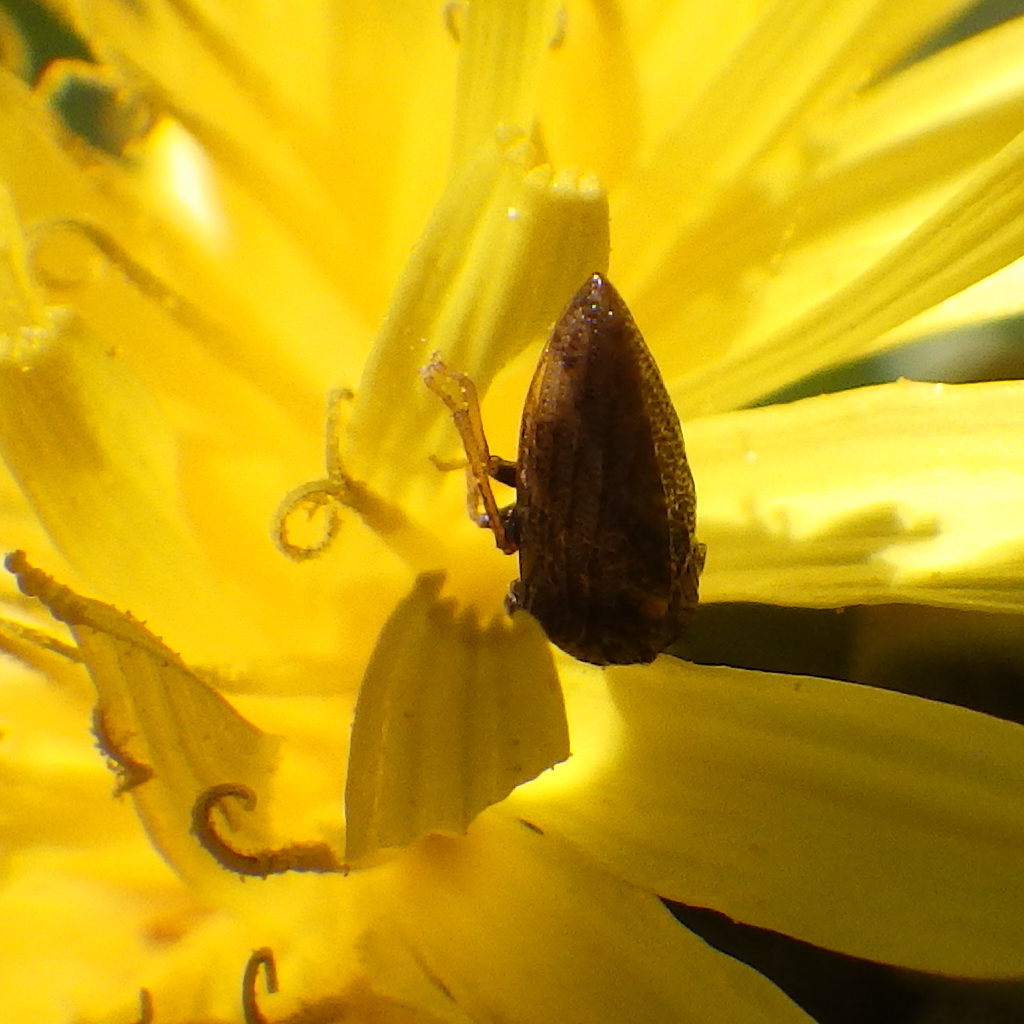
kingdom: Animalia
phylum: Arthropoda
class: Insecta
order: Hemiptera
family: Membracidae
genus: Publilia
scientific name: Publilia concava
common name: Aster treehopper
